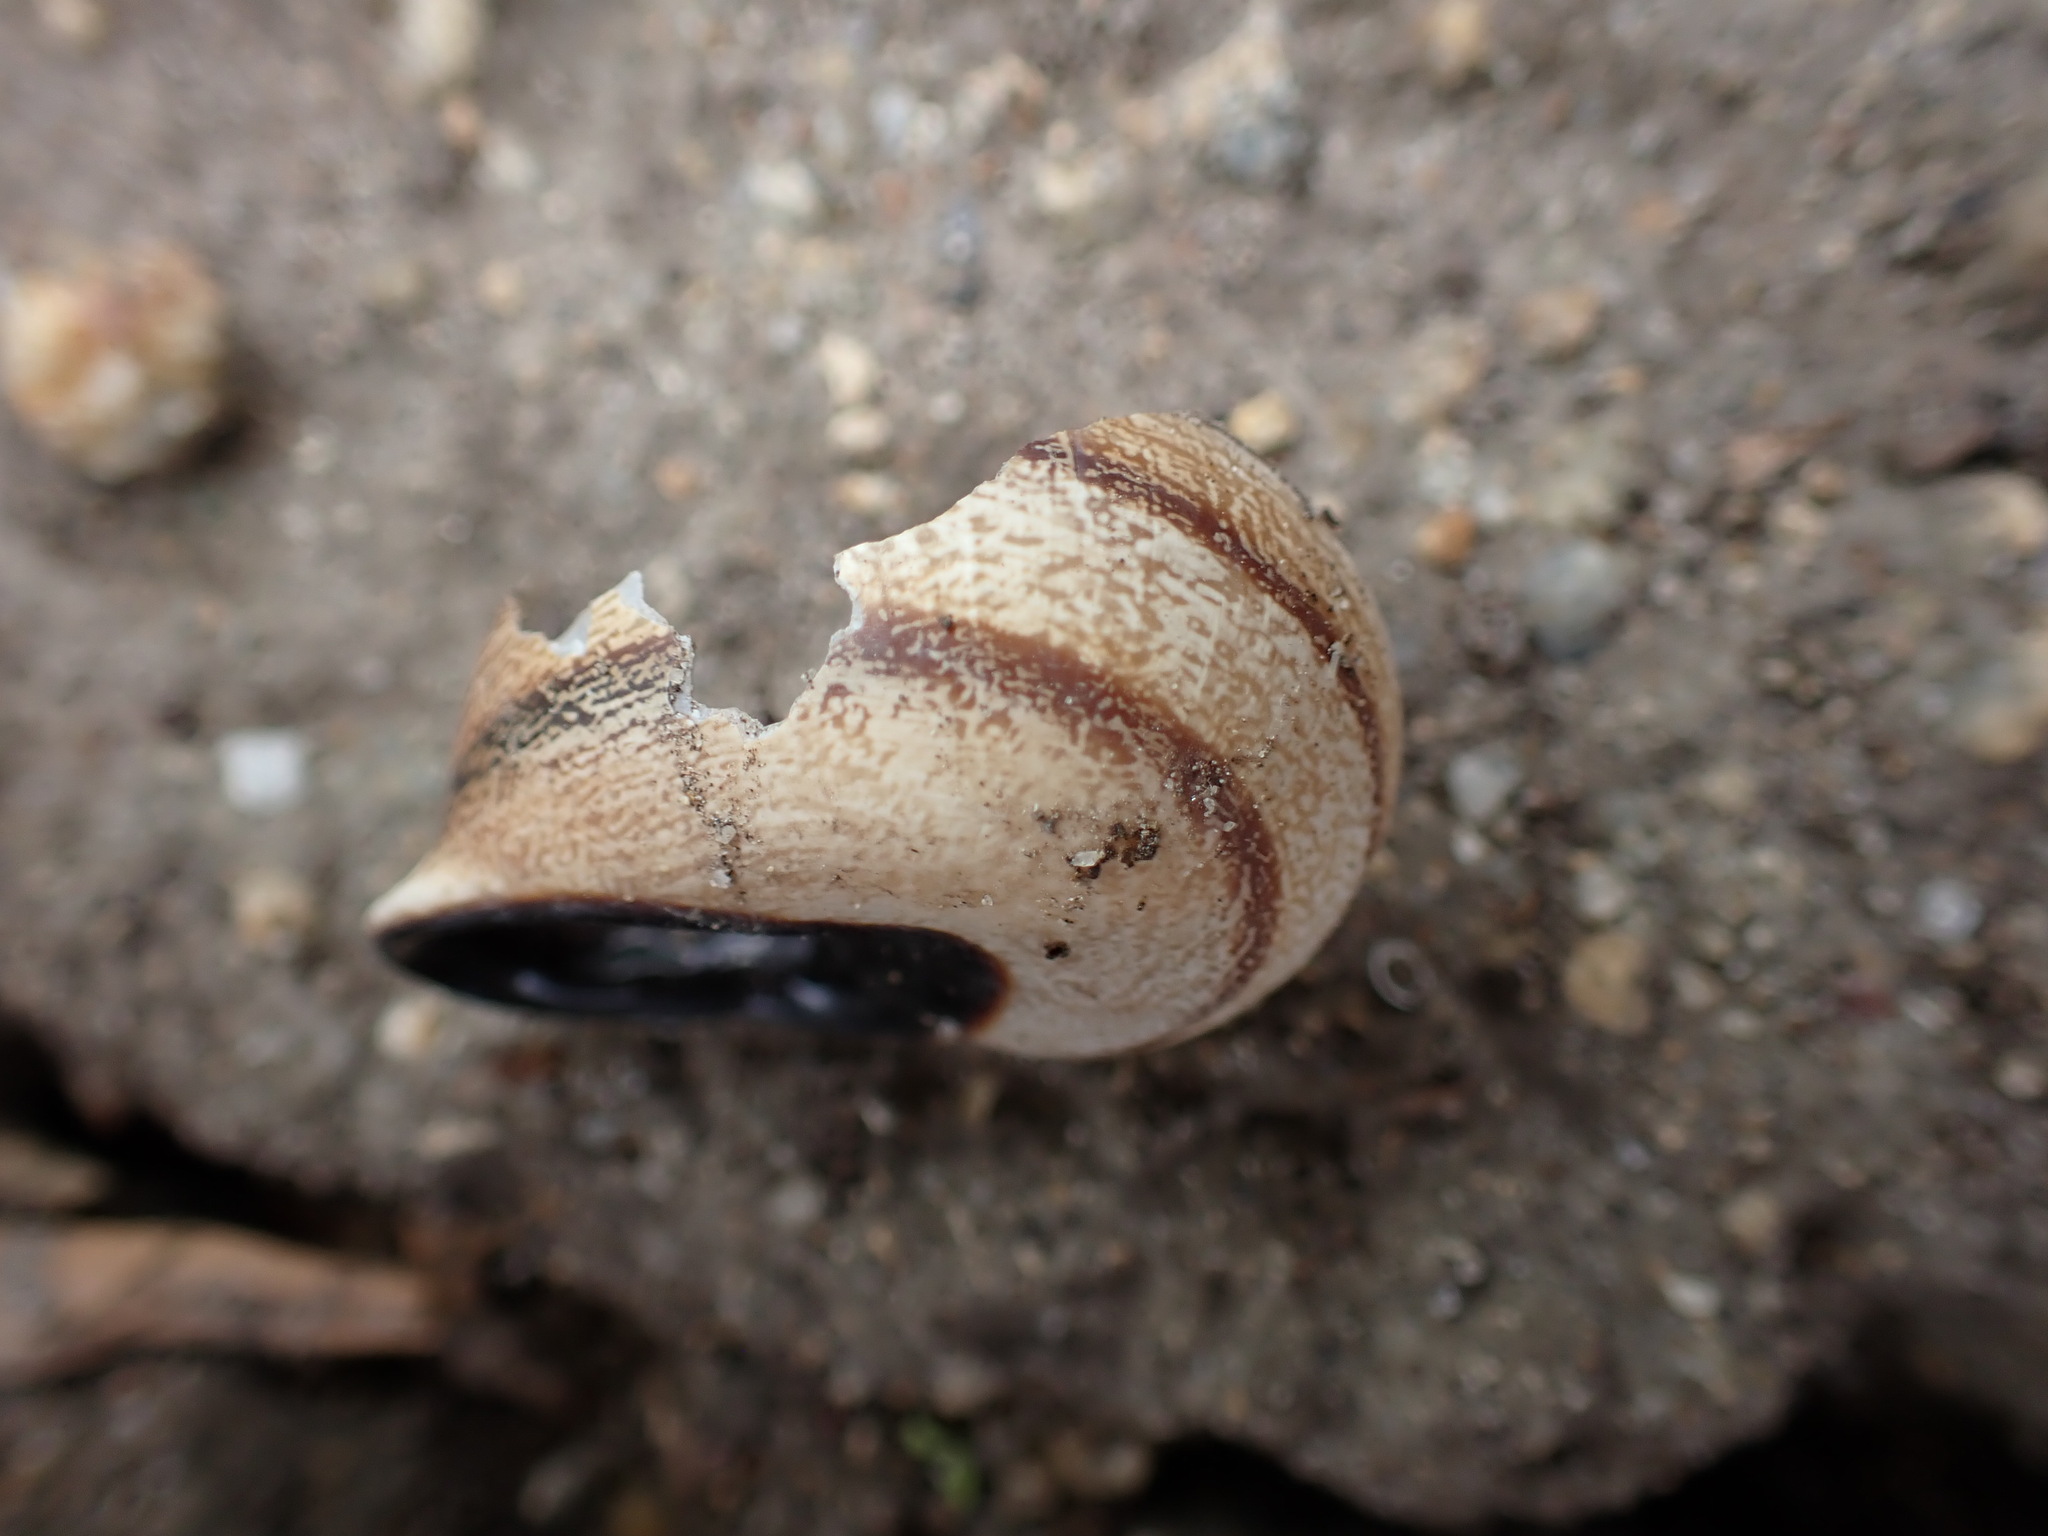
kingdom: Animalia
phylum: Mollusca
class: Gastropoda
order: Stylommatophora
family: Helicidae
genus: Otala
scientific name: Otala lactea
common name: Milk snail
